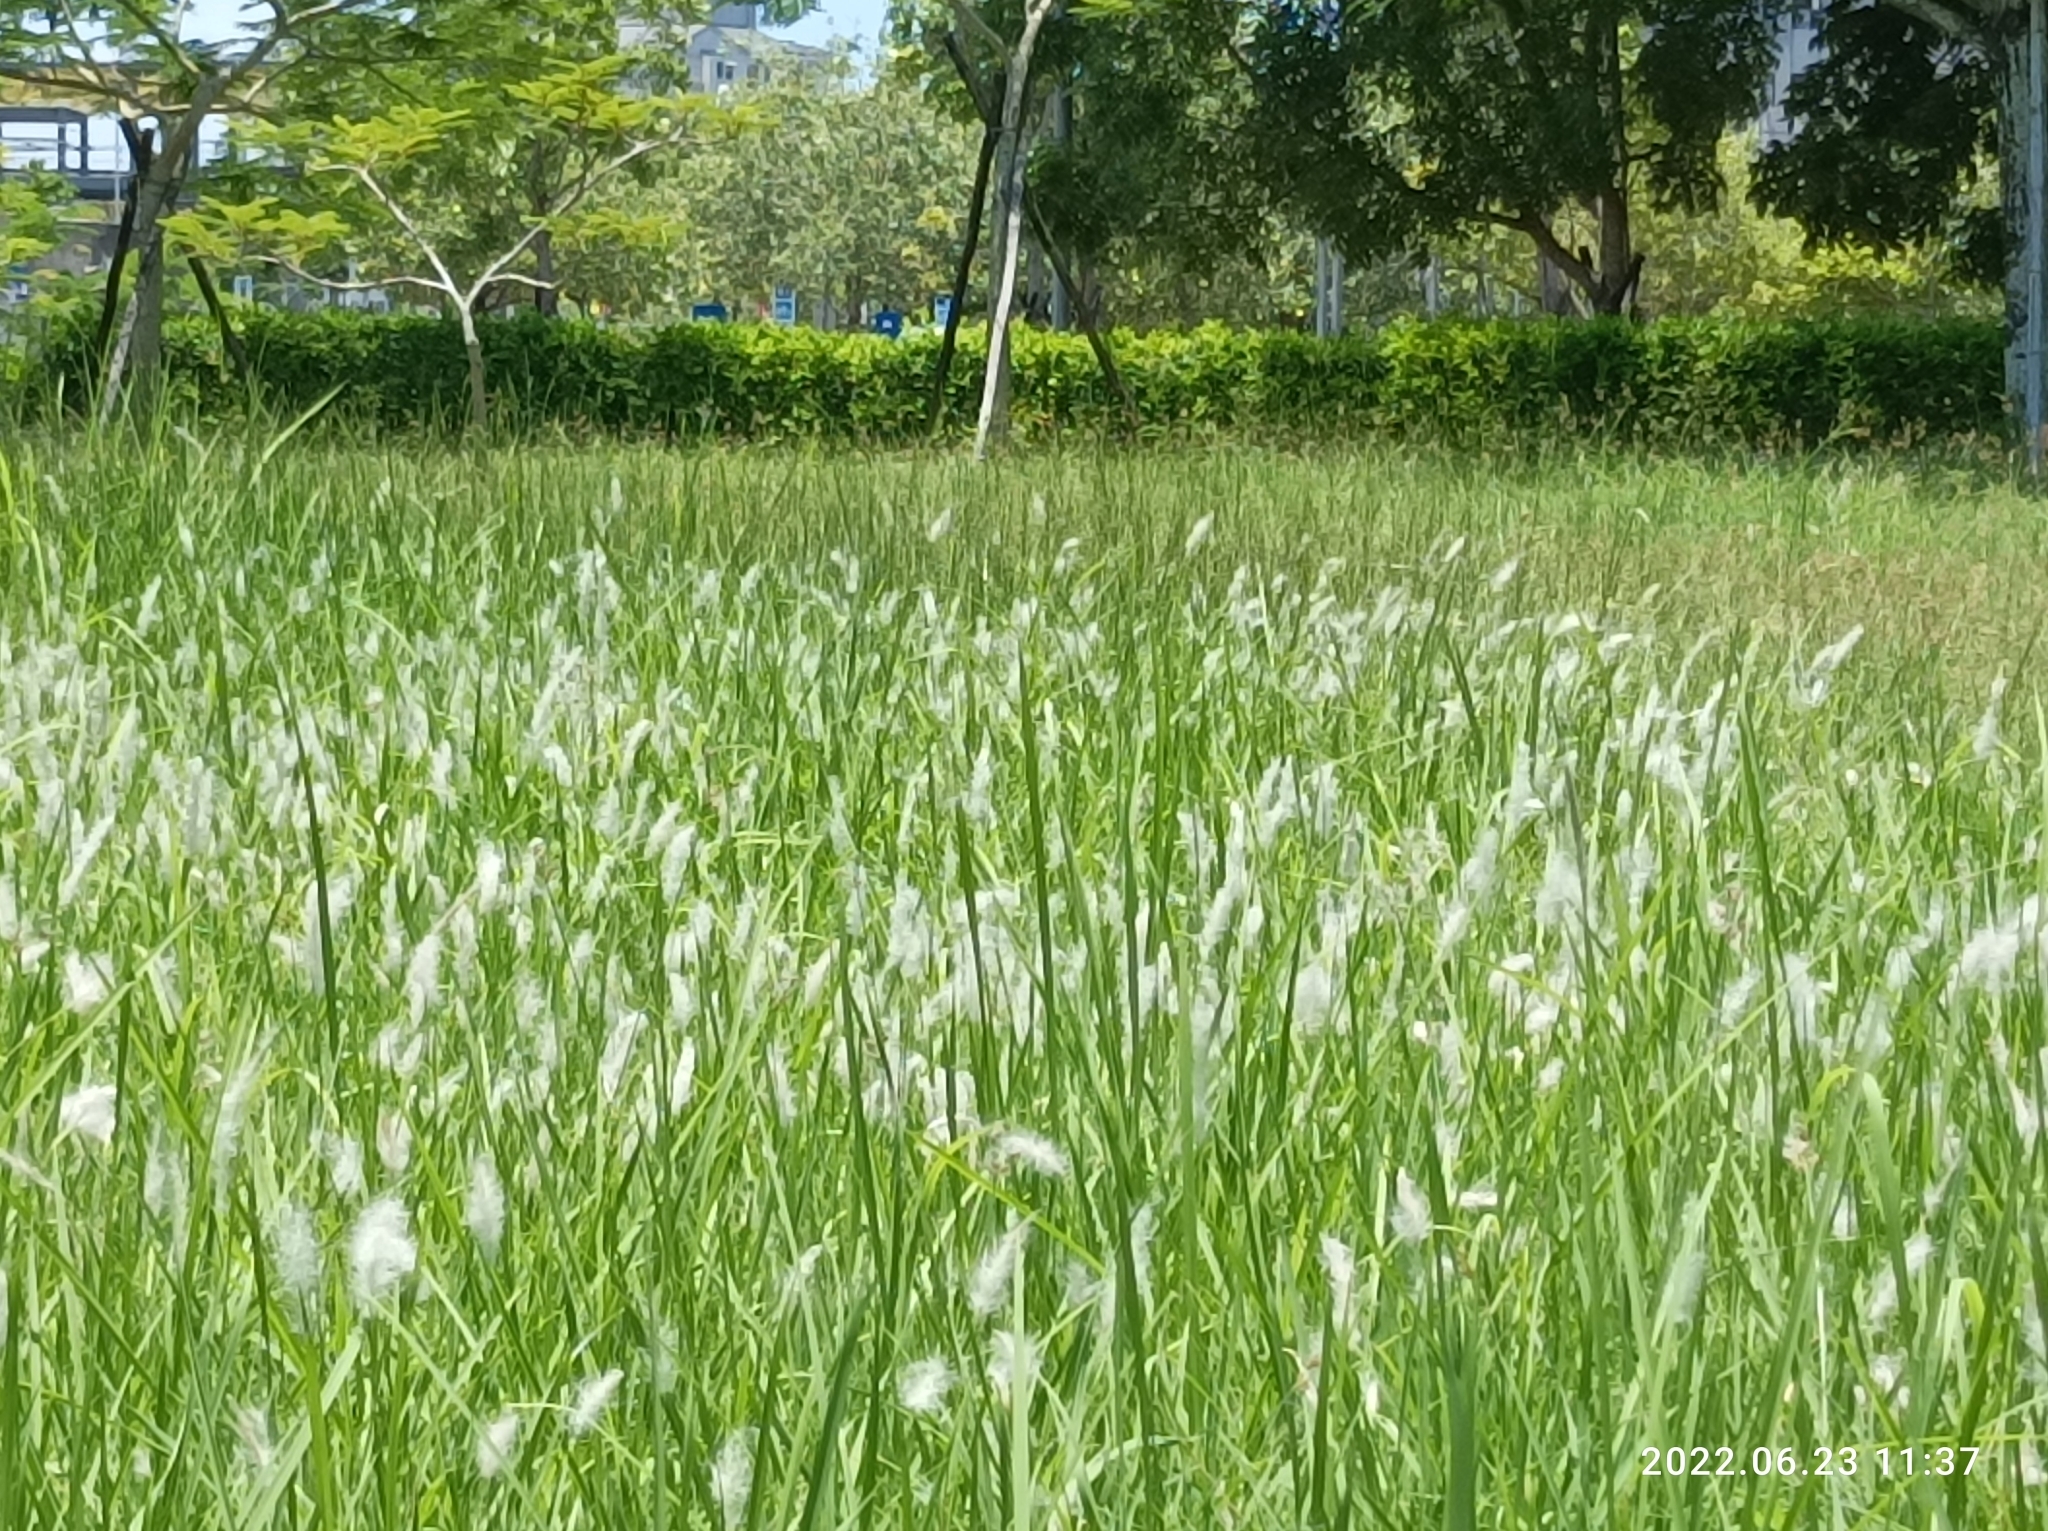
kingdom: Plantae
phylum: Tracheophyta
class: Liliopsida
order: Poales
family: Poaceae
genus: Imperata
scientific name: Imperata cylindrica
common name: Cogongrass
